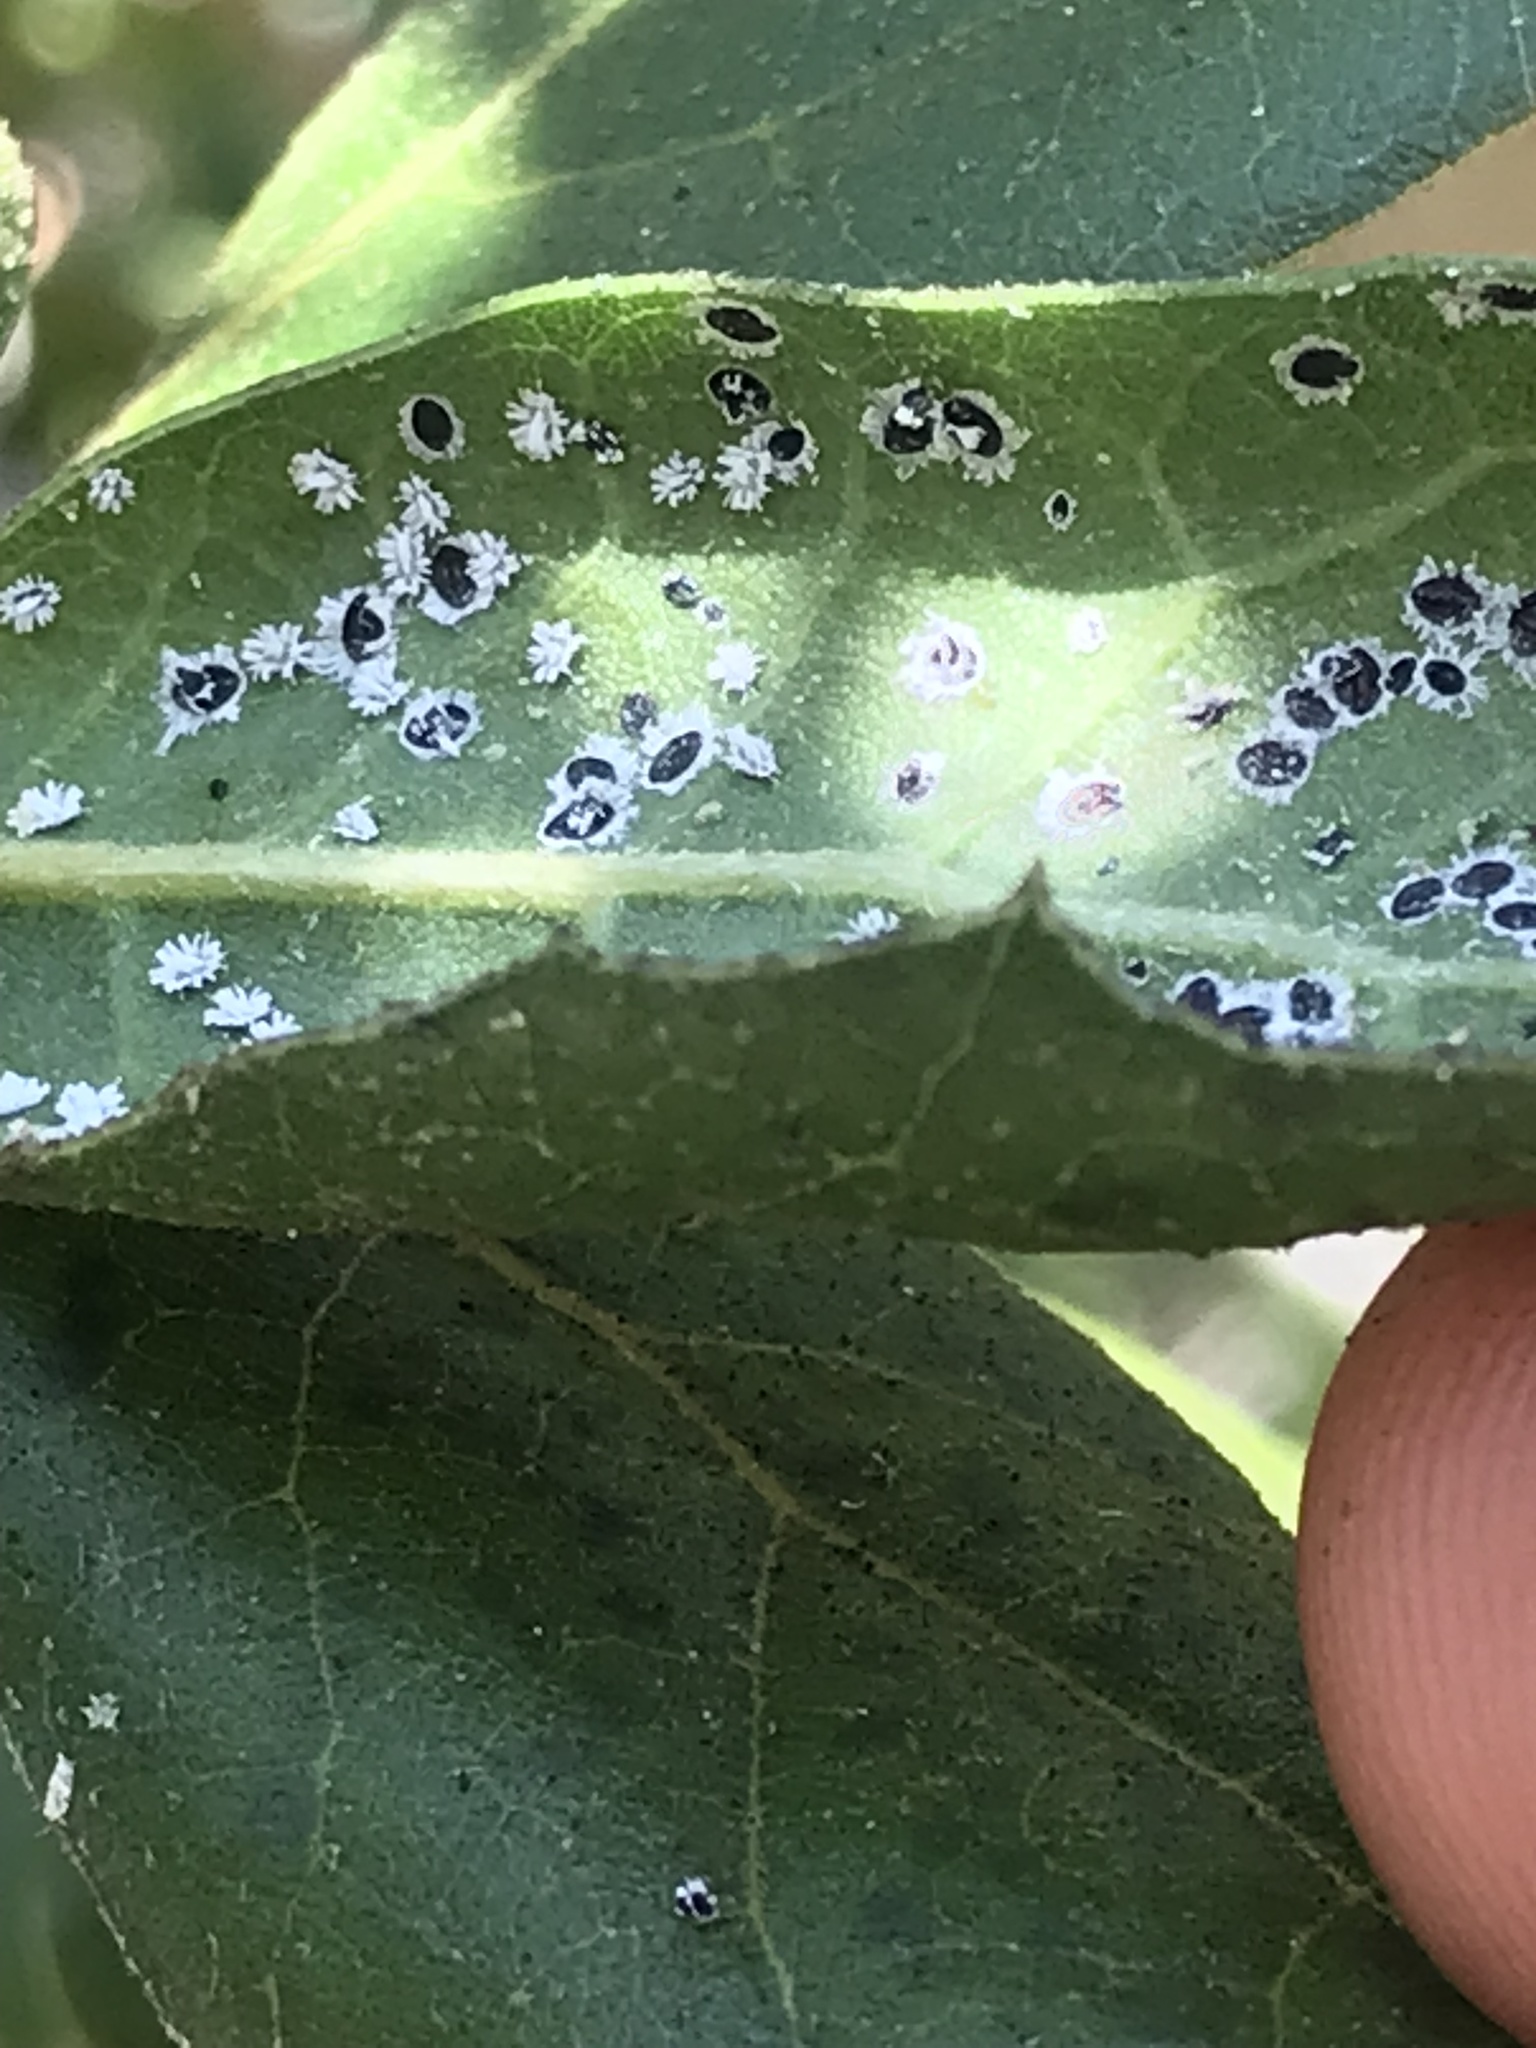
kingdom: Animalia
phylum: Arthropoda
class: Insecta
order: Hemiptera
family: Aleyrodidae
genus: Aleuroplatus
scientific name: Aleuroplatus coronata
